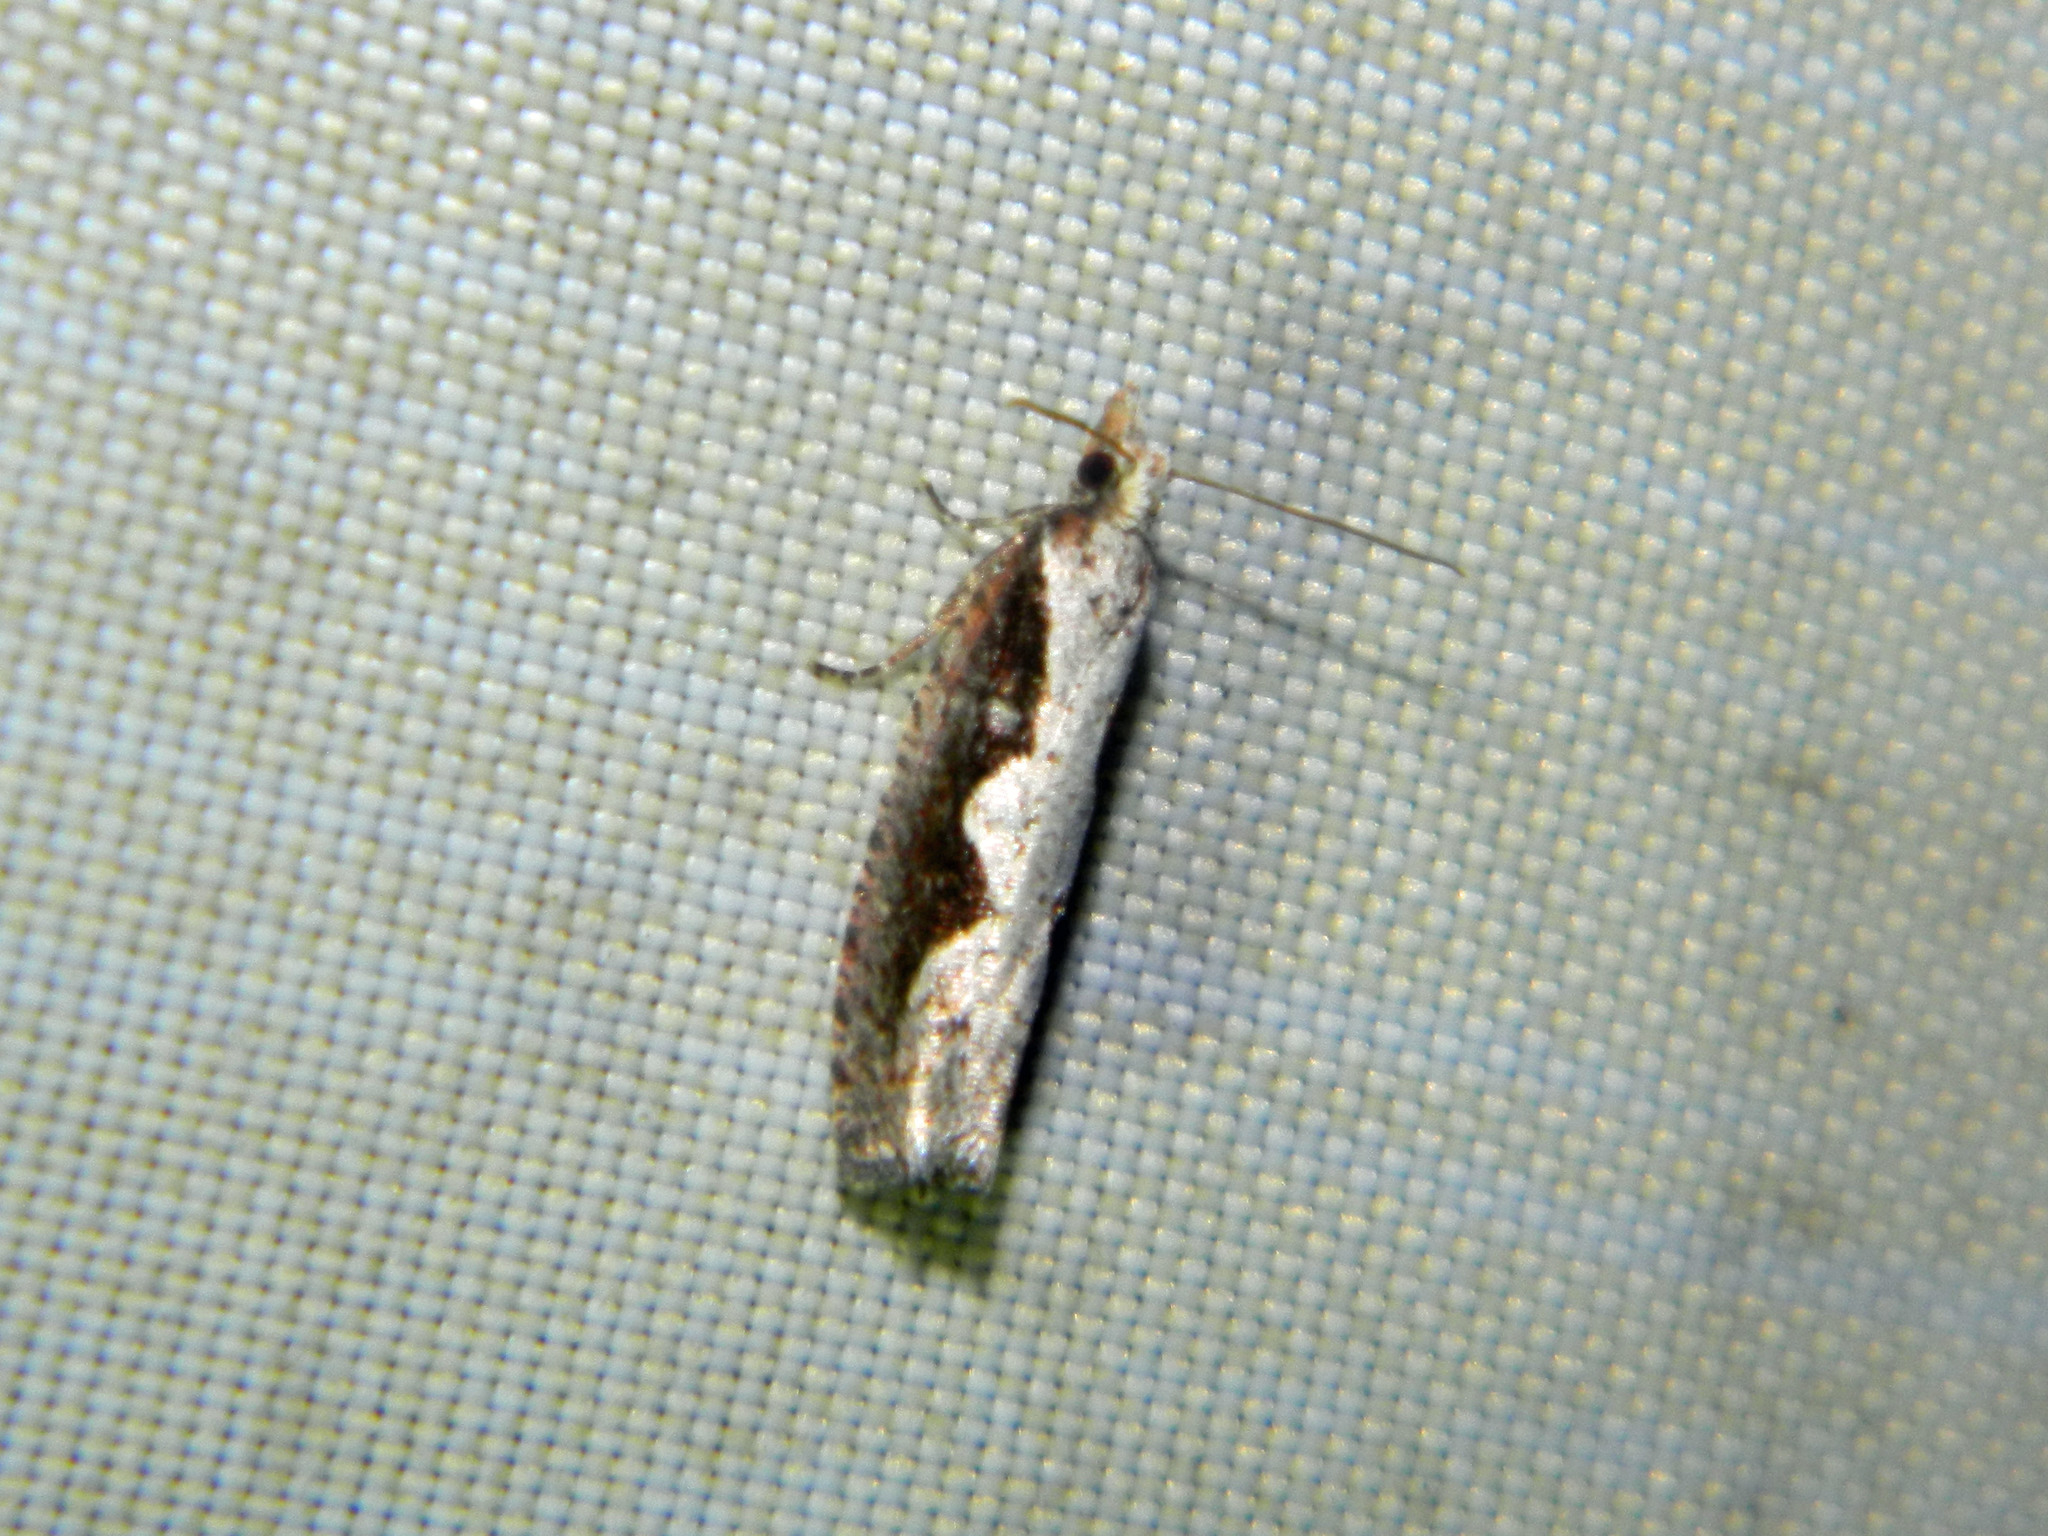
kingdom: Animalia
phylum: Arthropoda
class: Insecta
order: Lepidoptera
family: Tortricidae
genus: Epinotia
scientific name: Epinotia lindana
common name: Diamondback epinotia moth
